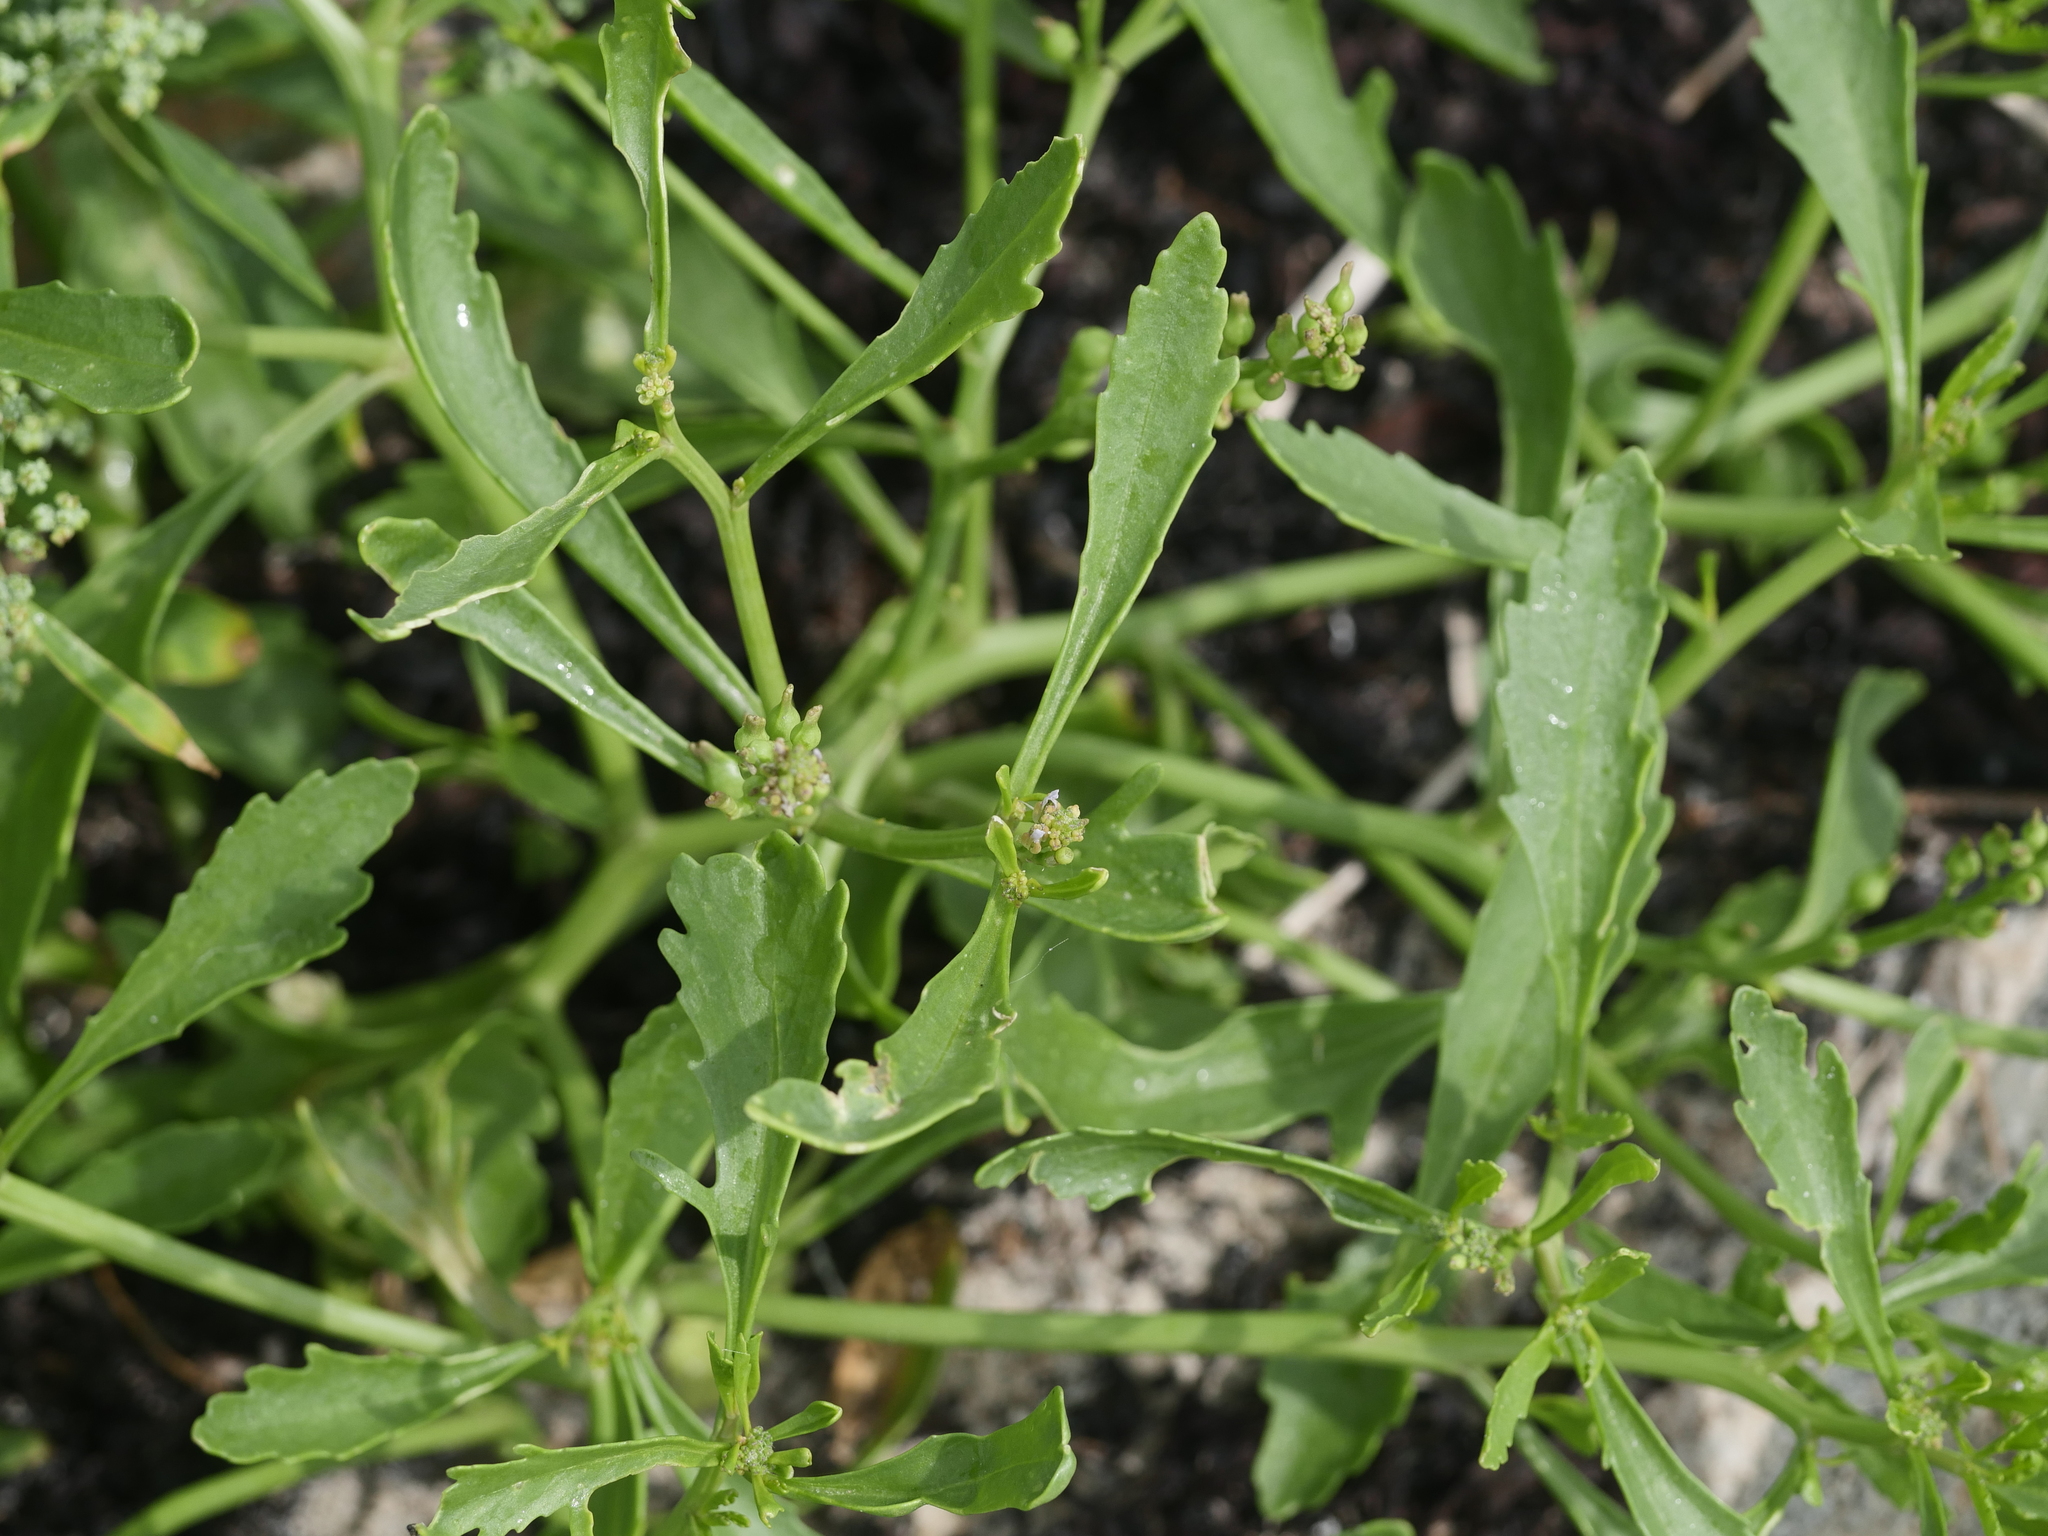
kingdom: Plantae
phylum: Tracheophyta
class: Magnoliopsida
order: Brassicales
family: Brassicaceae
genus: Cakile
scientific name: Cakile edentula
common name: American sea rocket
